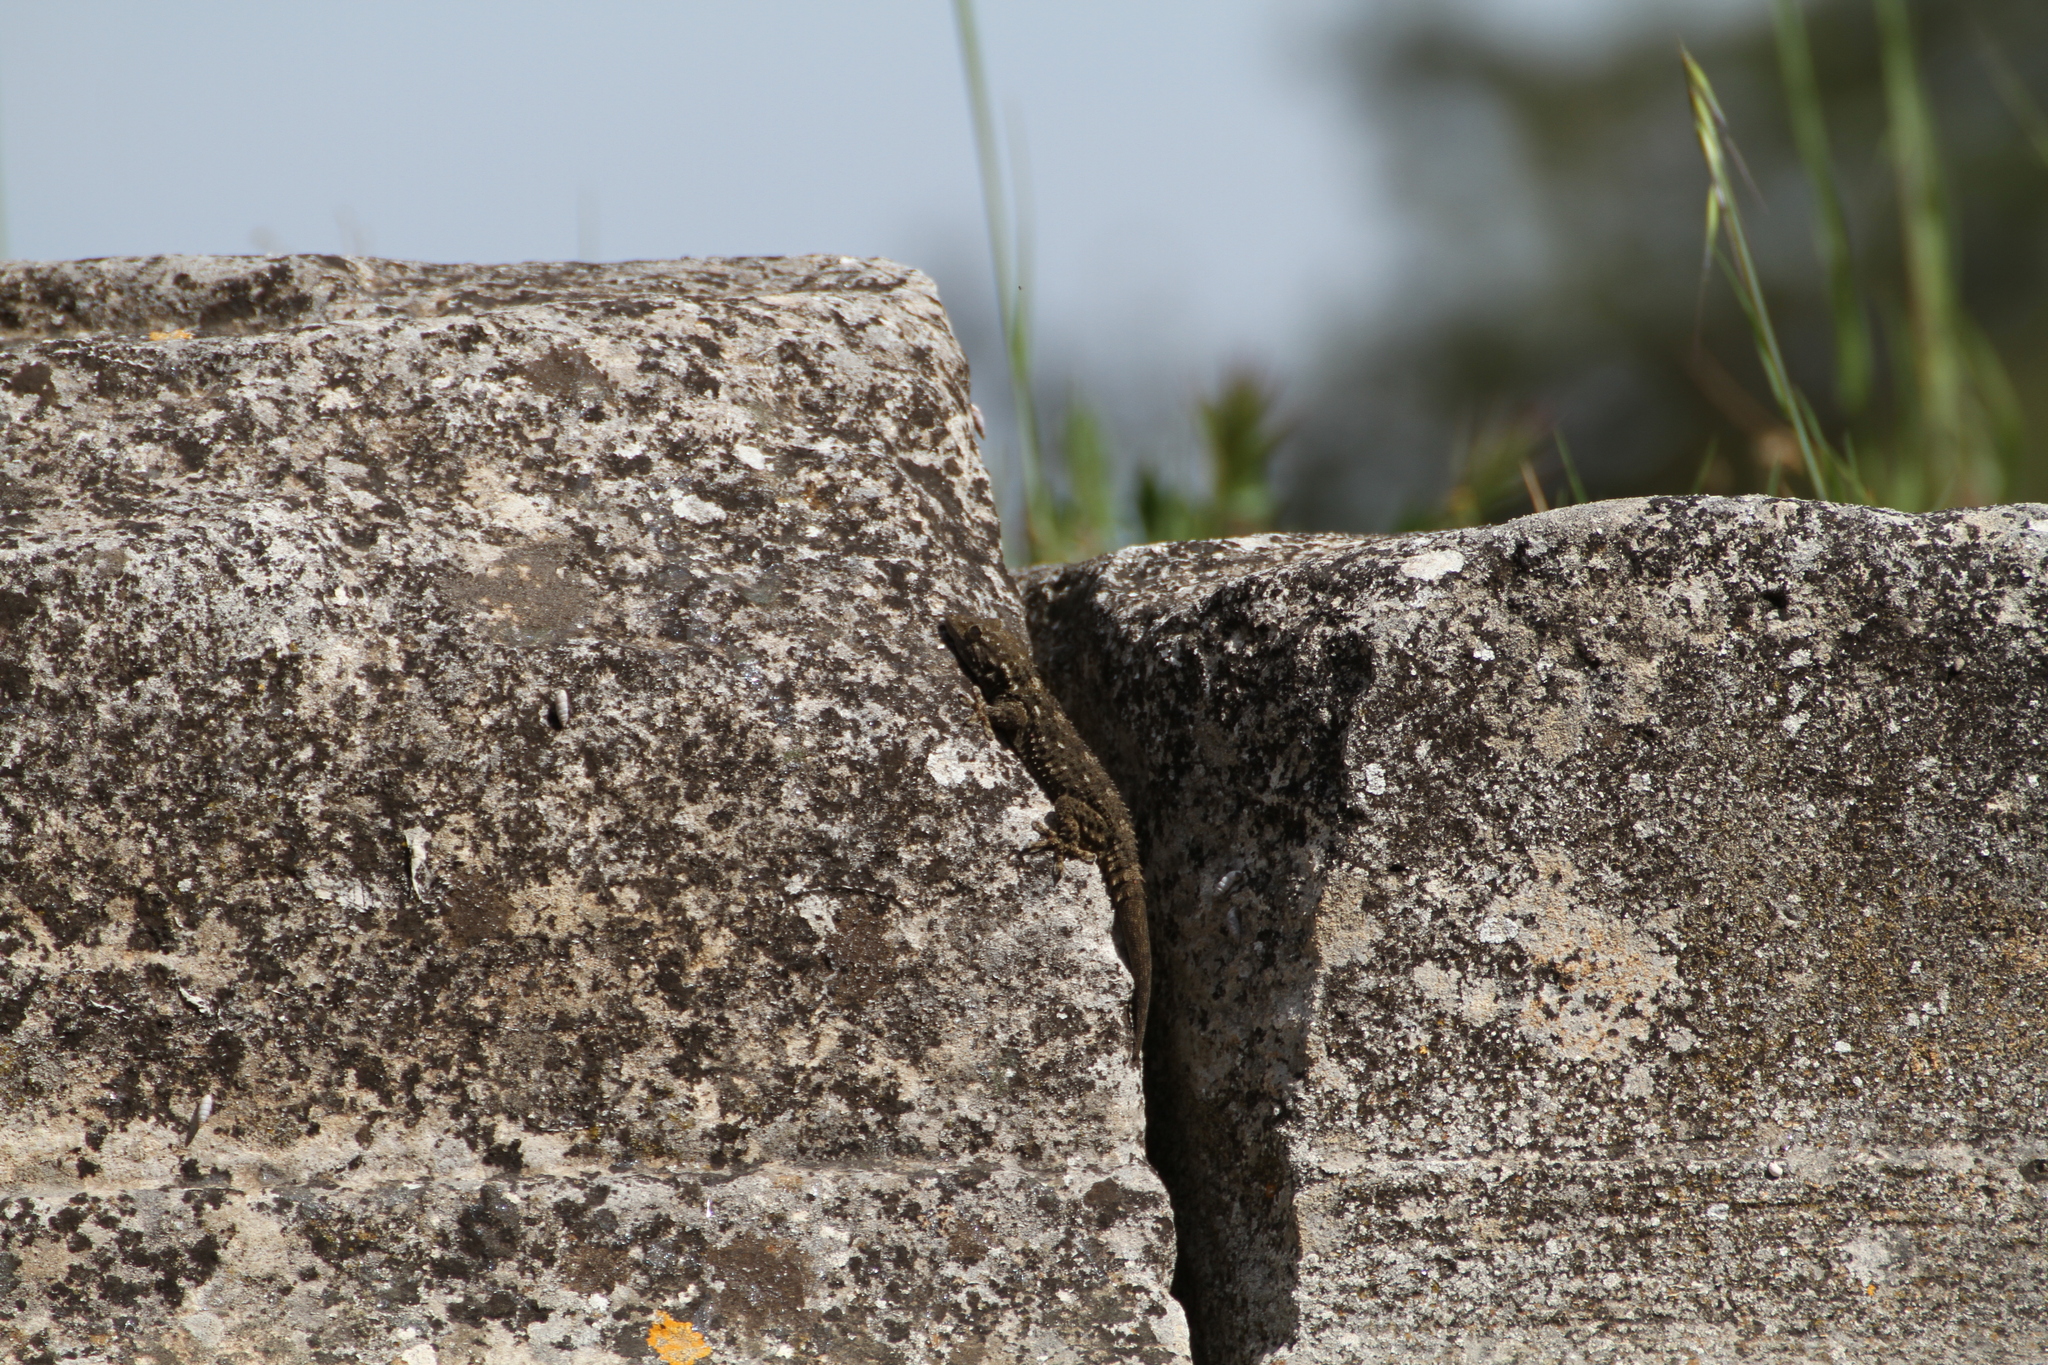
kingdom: Animalia
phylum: Chordata
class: Squamata
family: Phyllodactylidae
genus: Tarentola
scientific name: Tarentola mauritanica
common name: Moorish gecko
